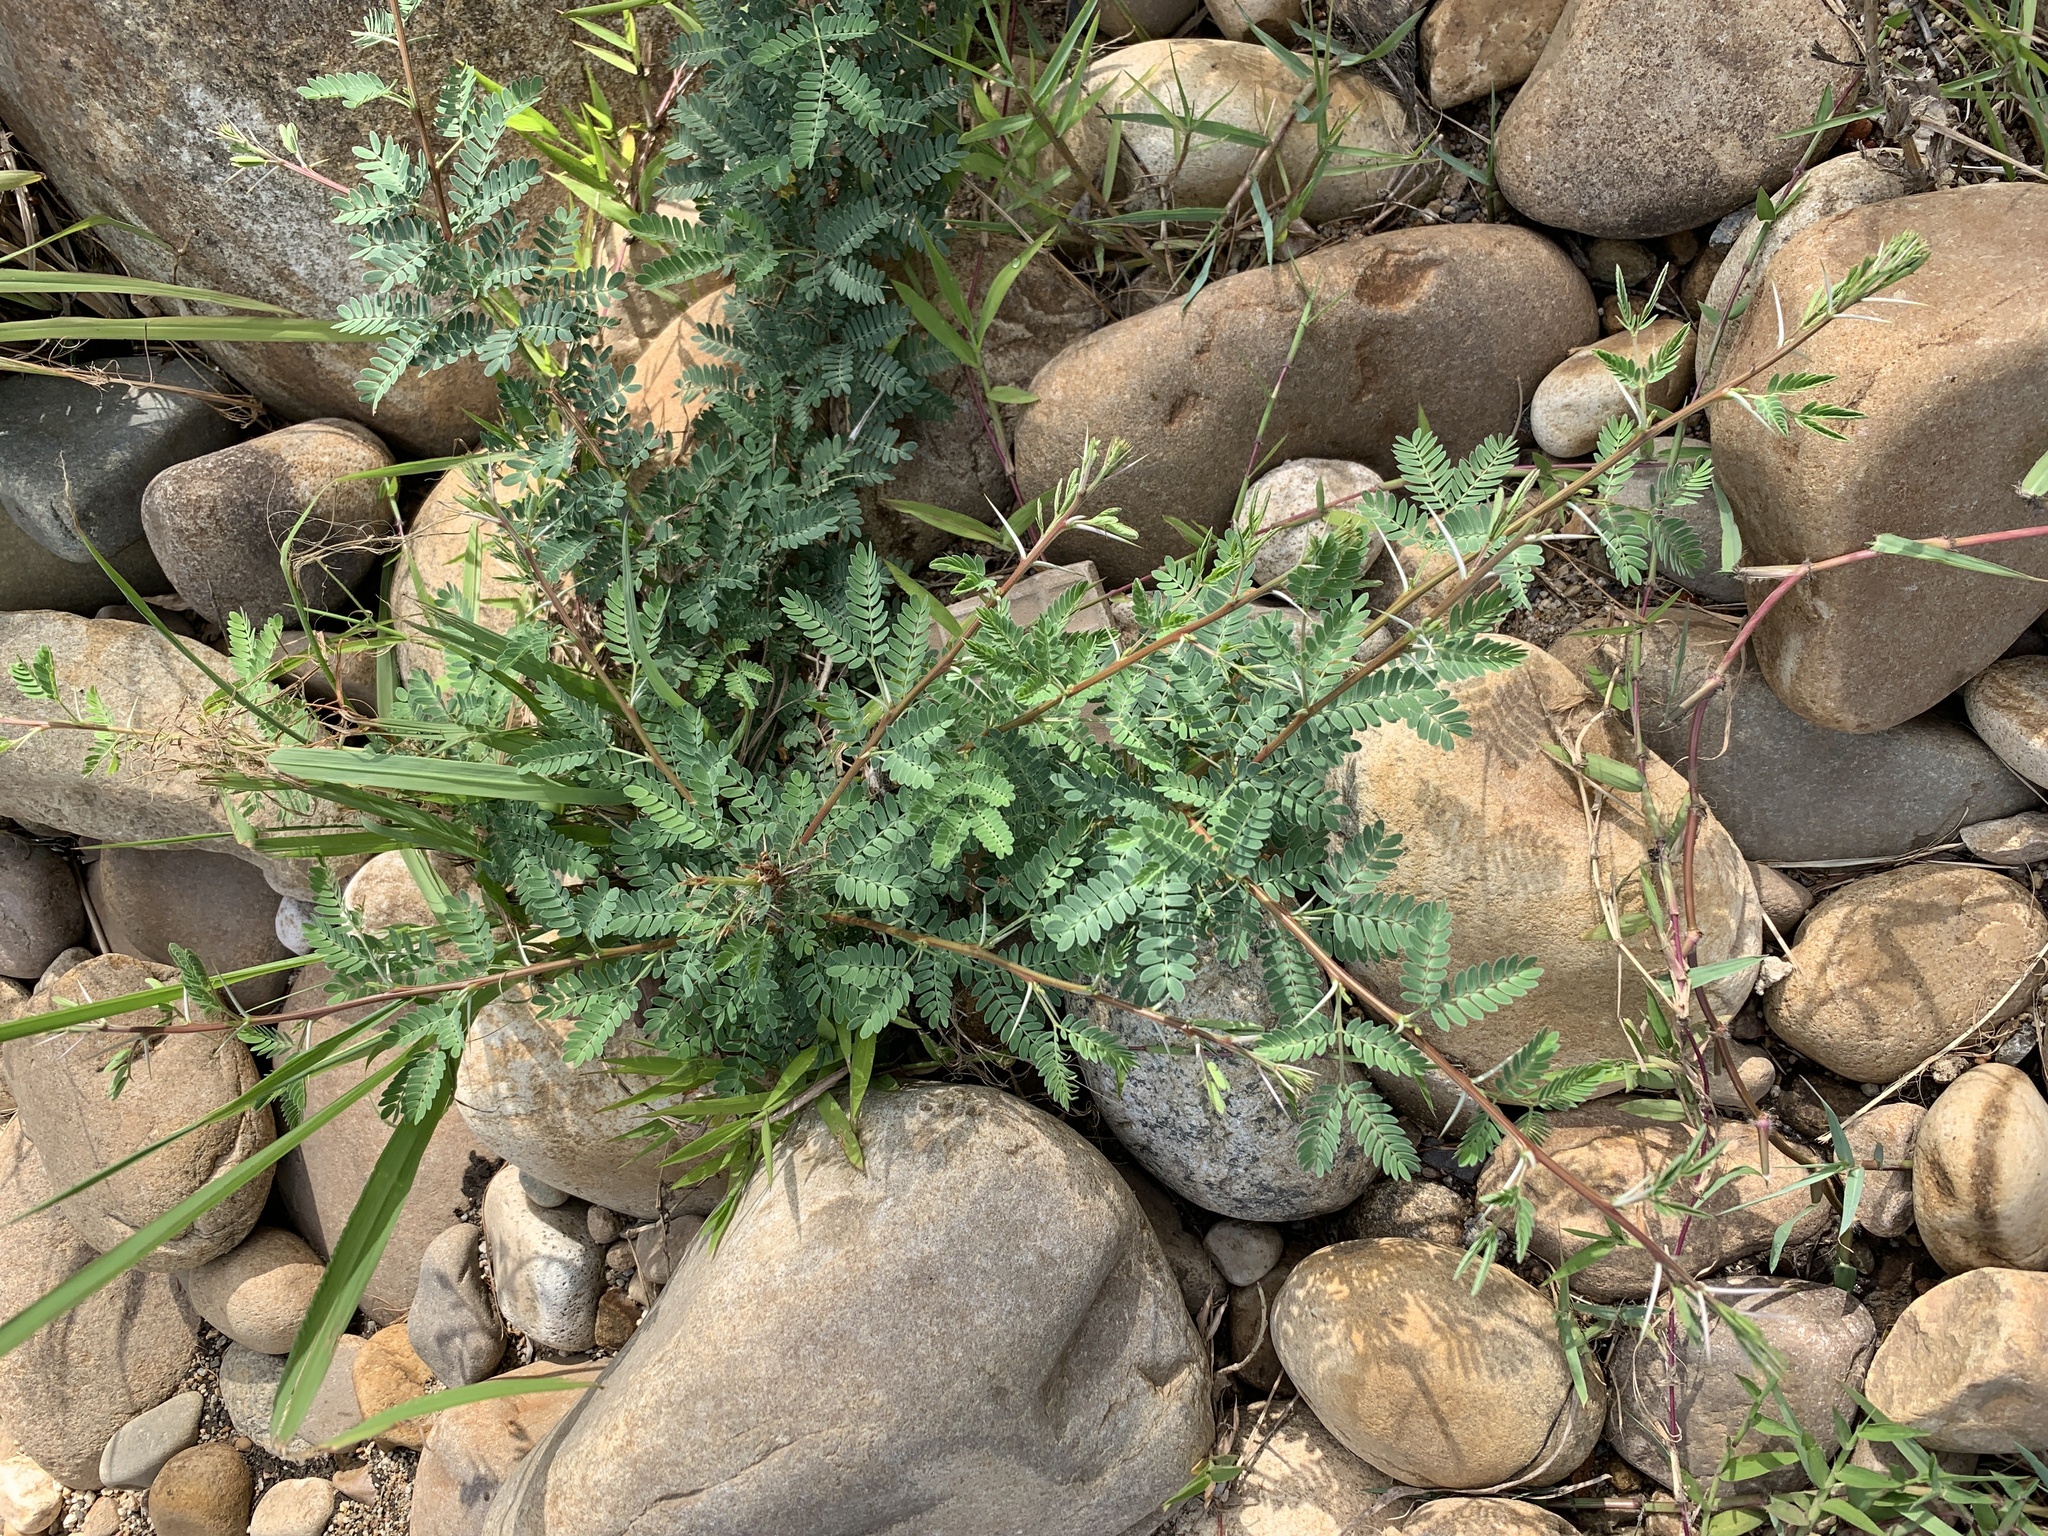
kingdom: Plantae
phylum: Tracheophyta
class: Magnoliopsida
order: Fabales
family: Fabaceae
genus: Vachellia
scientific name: Vachellia karroo
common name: Sweet thorn
